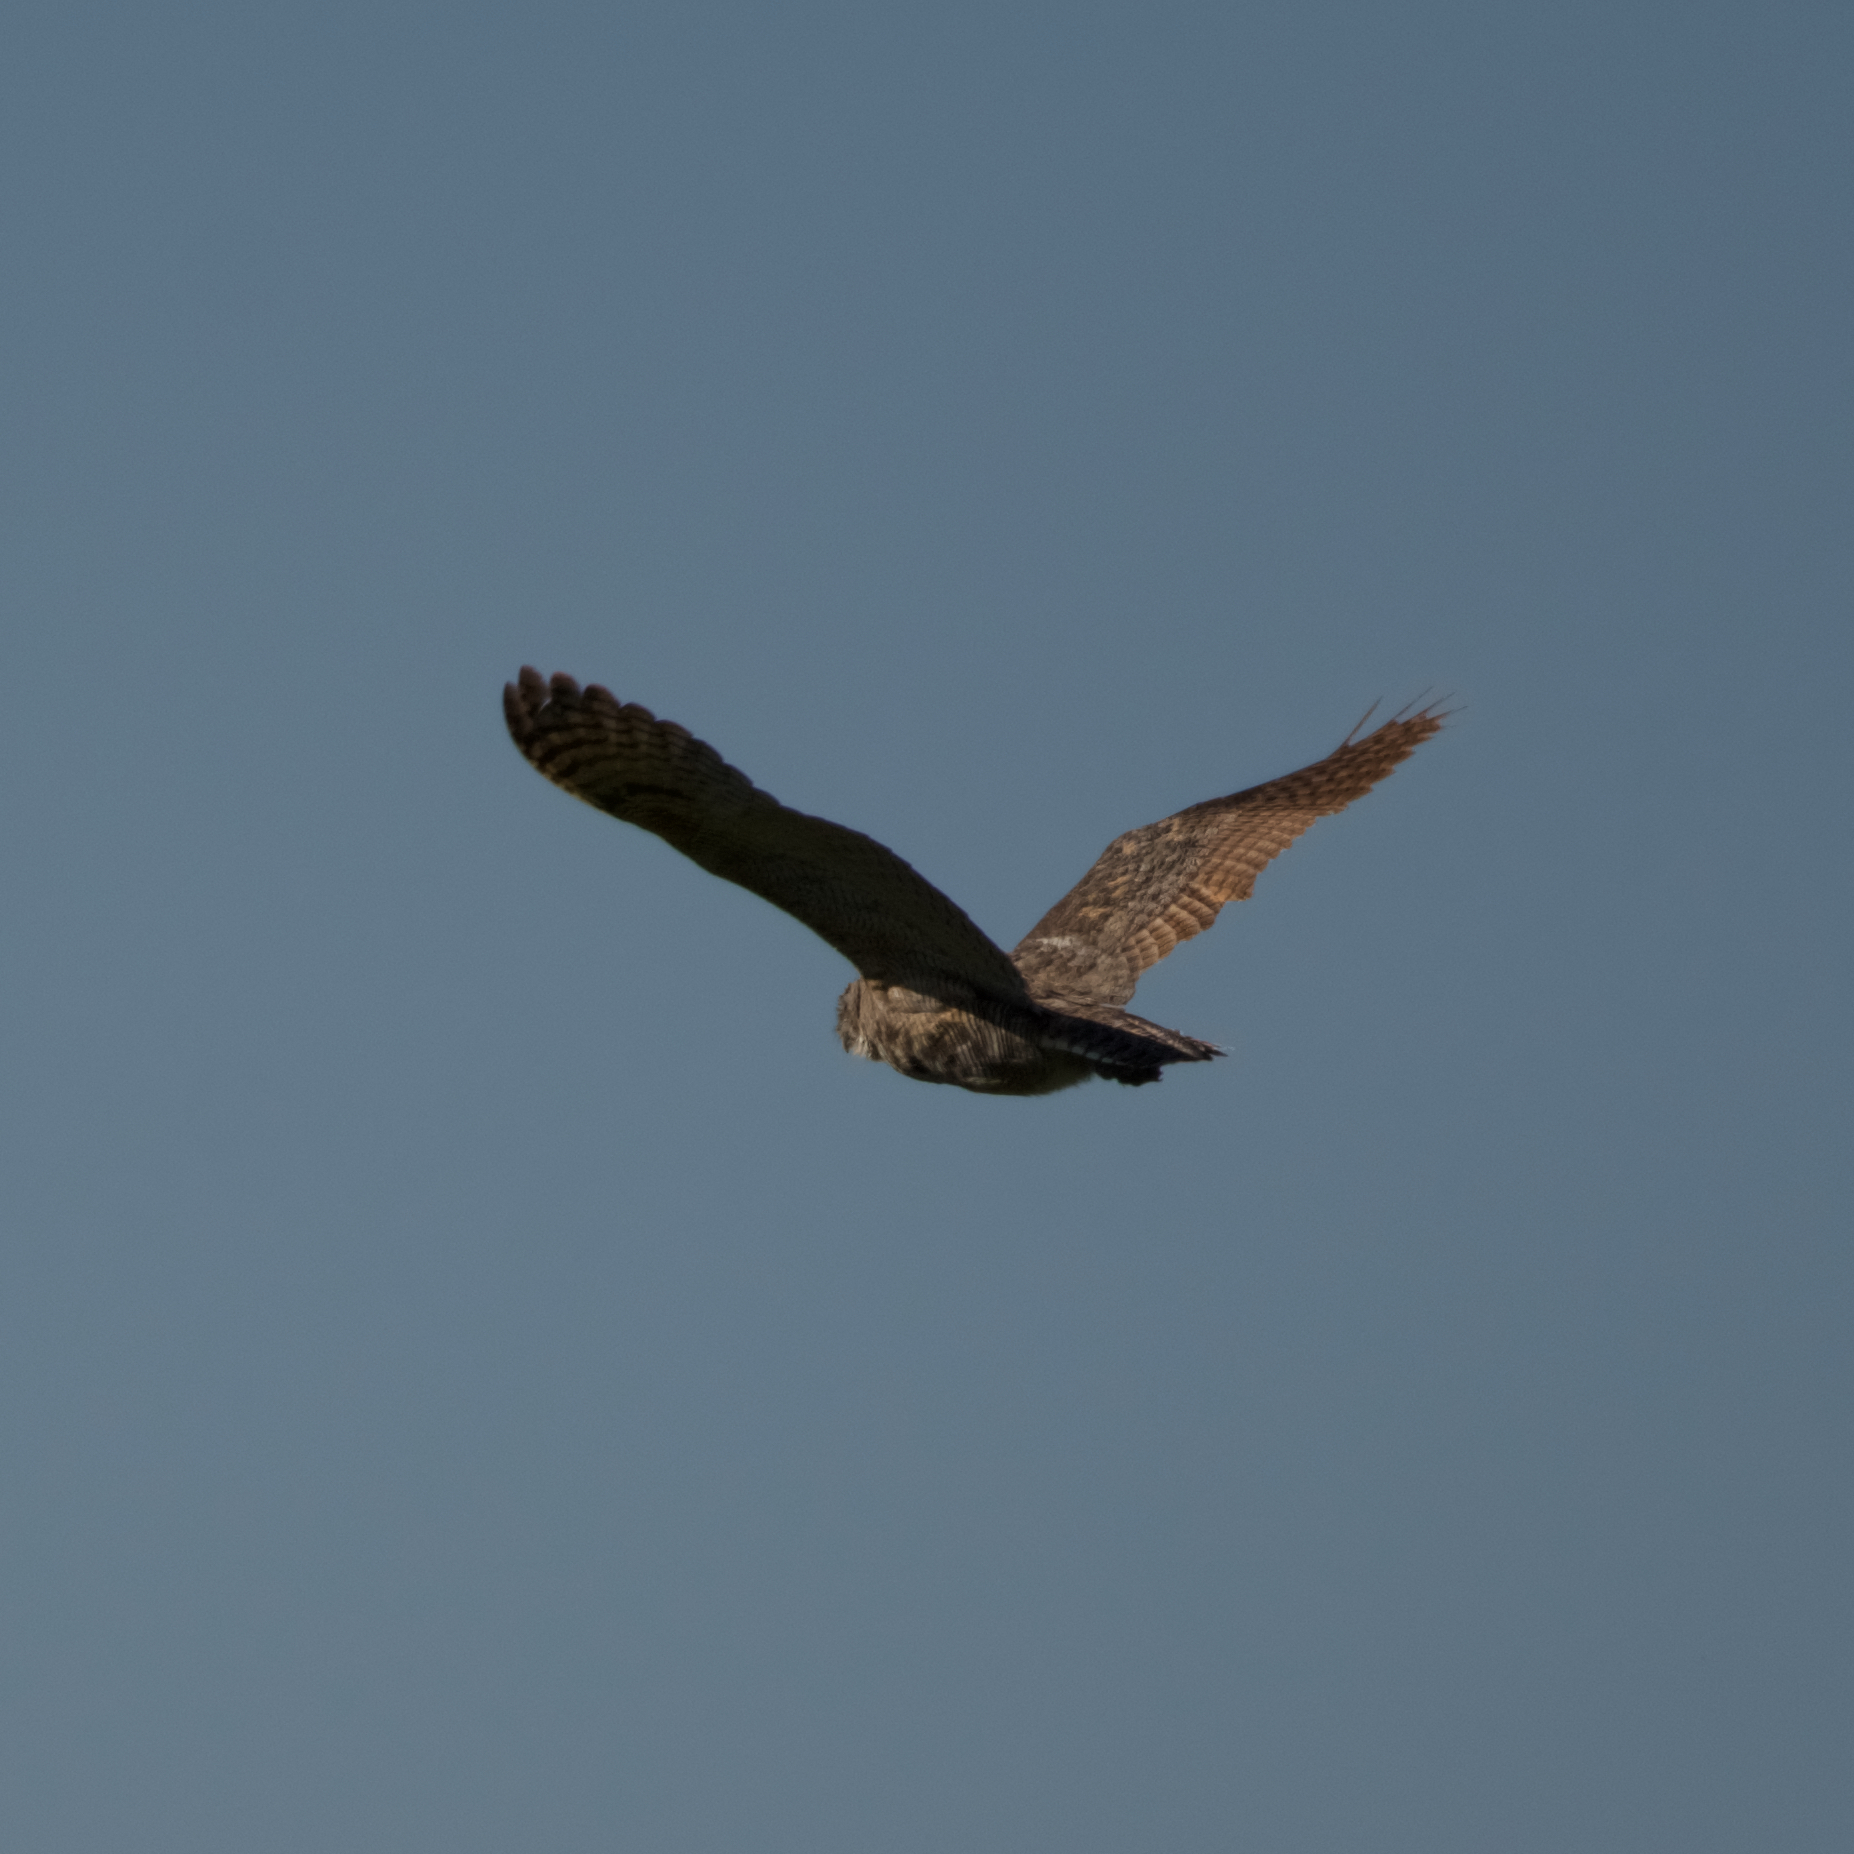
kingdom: Animalia
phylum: Chordata
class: Aves
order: Strigiformes
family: Strigidae
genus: Bubo
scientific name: Bubo virginianus
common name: Great horned owl
